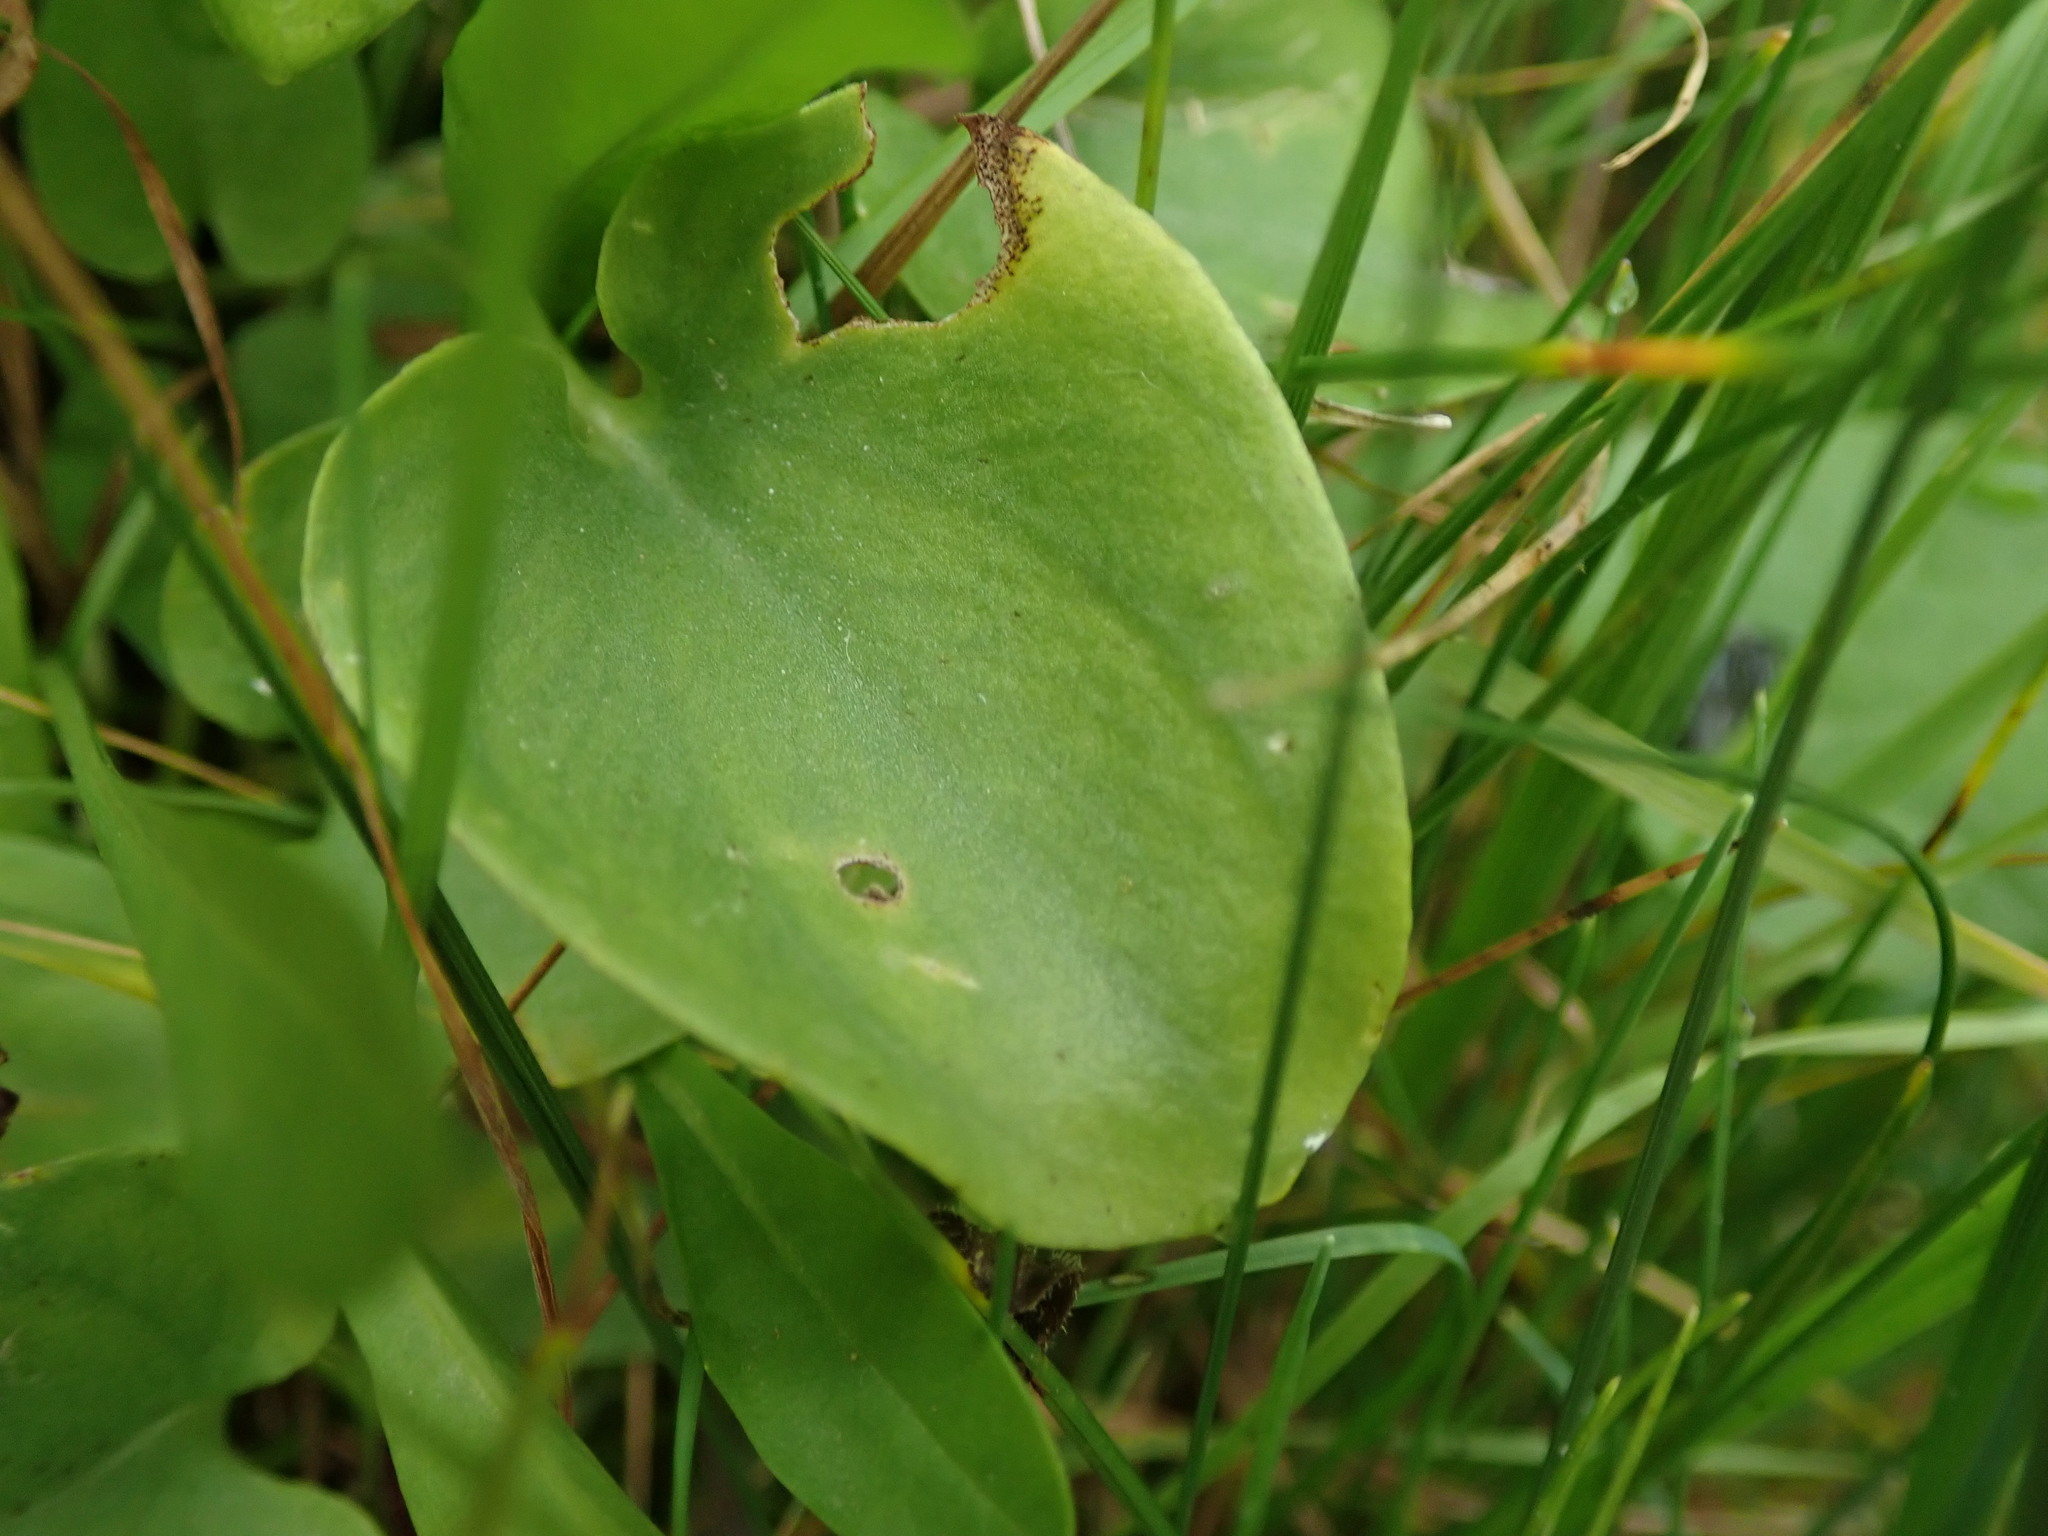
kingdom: Plantae
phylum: Tracheophyta
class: Magnoliopsida
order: Celastrales
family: Parnassiaceae
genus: Parnassia
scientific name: Parnassia palustris
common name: Grass-of-parnassus
